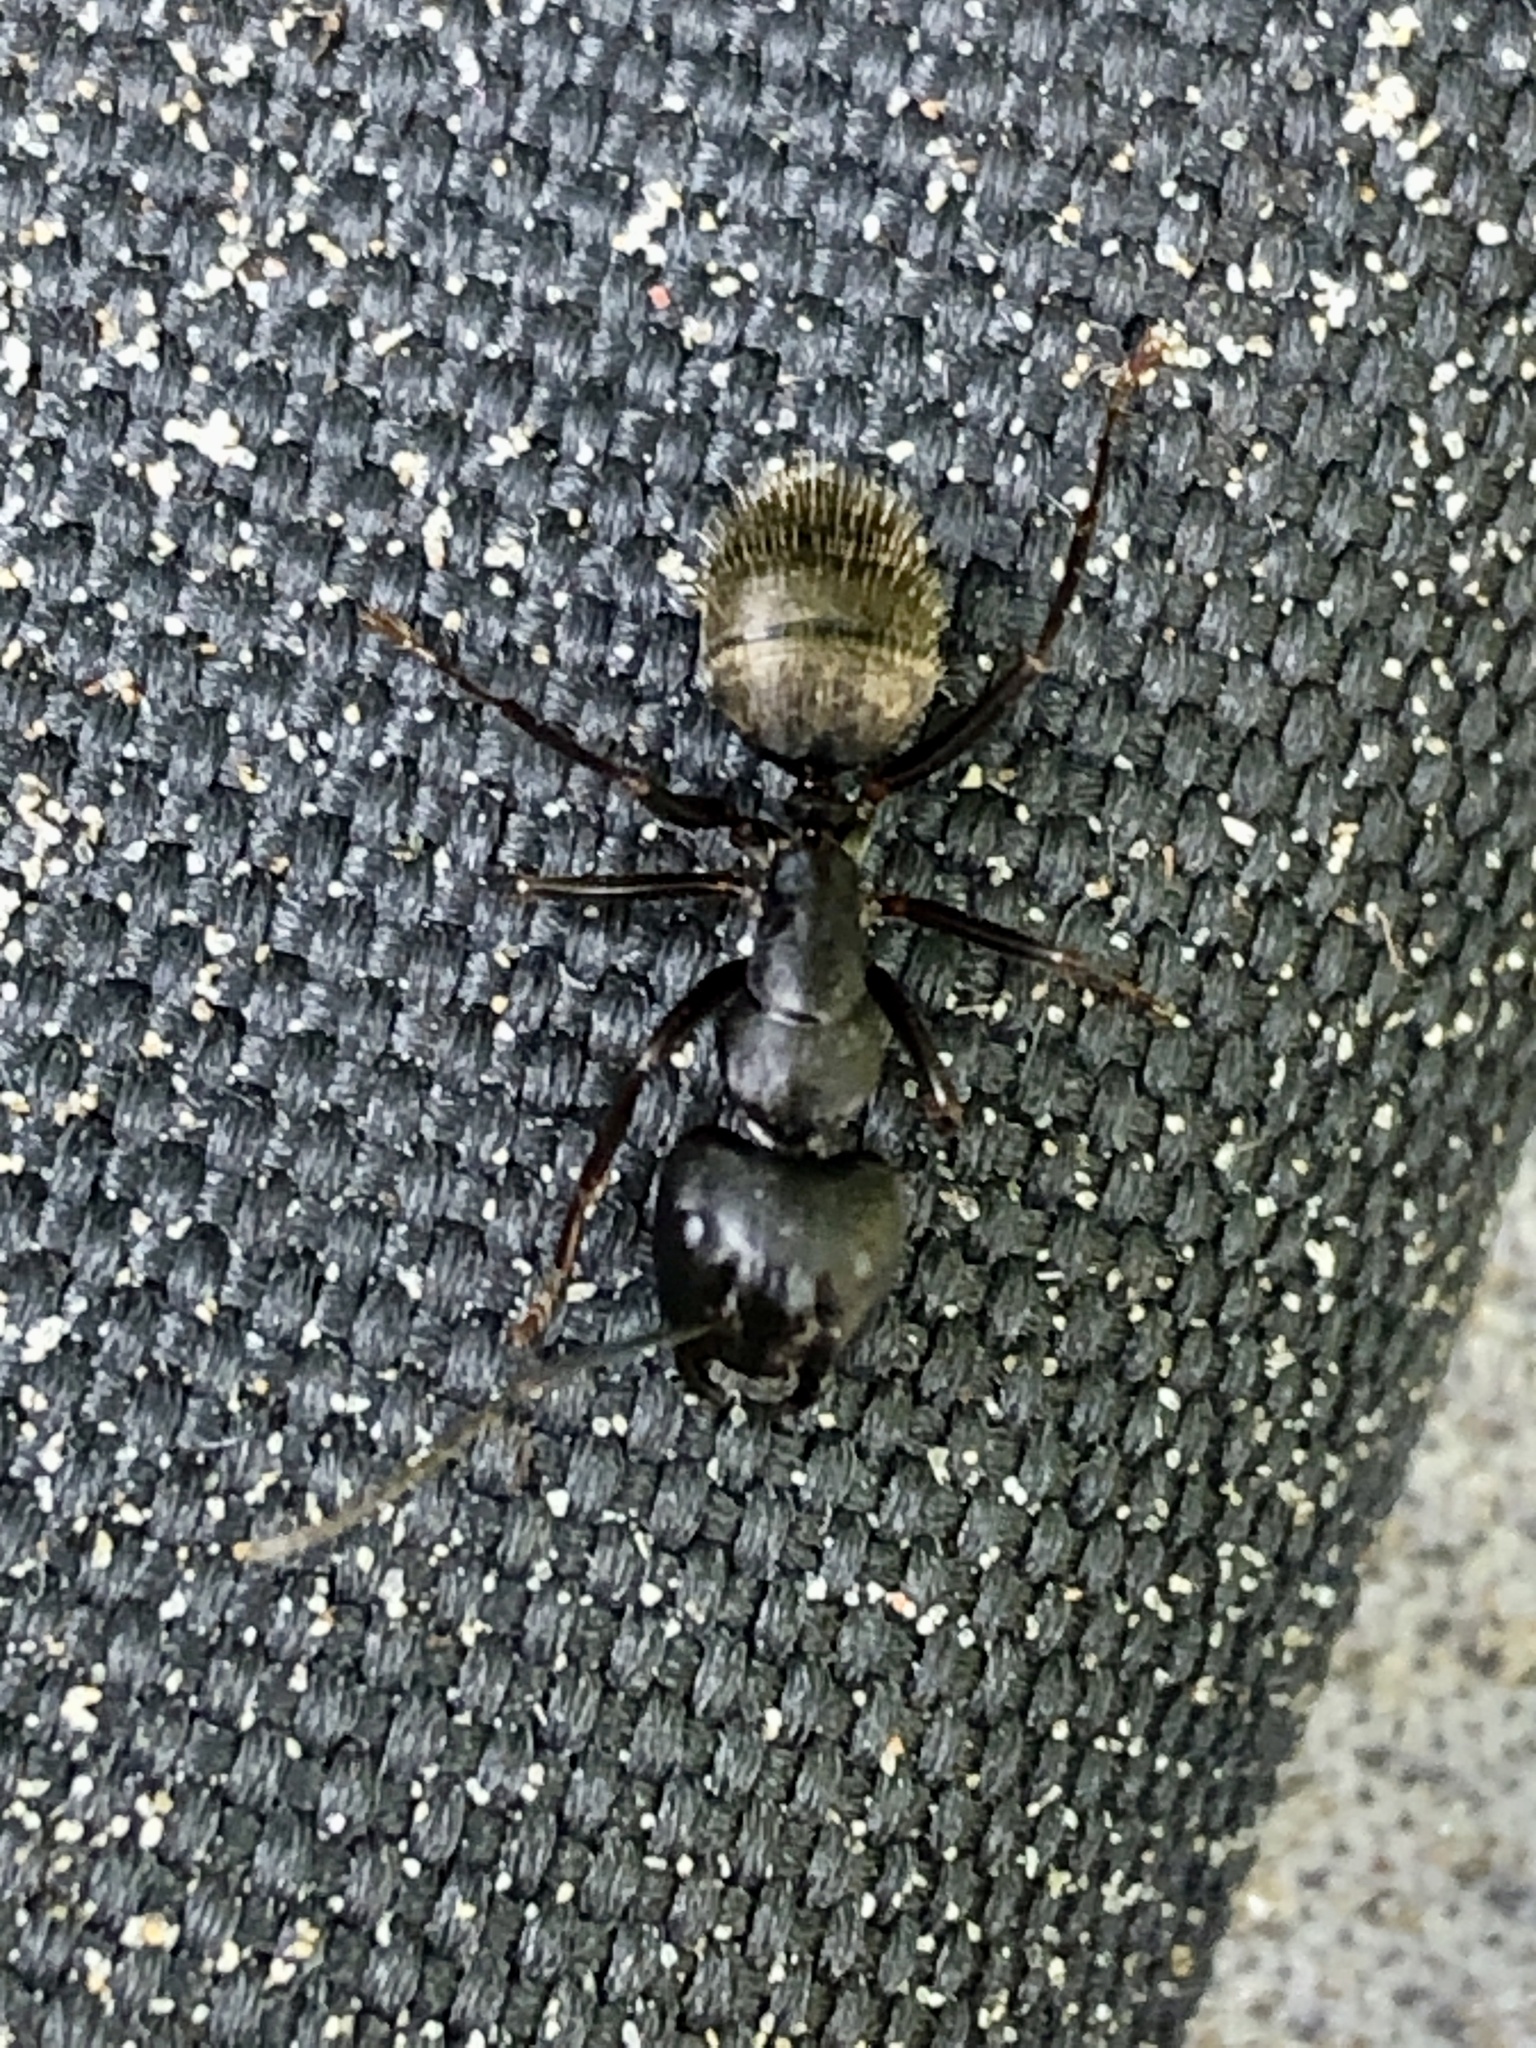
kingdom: Animalia
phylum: Arthropoda
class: Insecta
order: Hymenoptera
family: Formicidae
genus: Camponotus
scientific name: Camponotus pennsylvanicus
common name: Black carpenter ant
